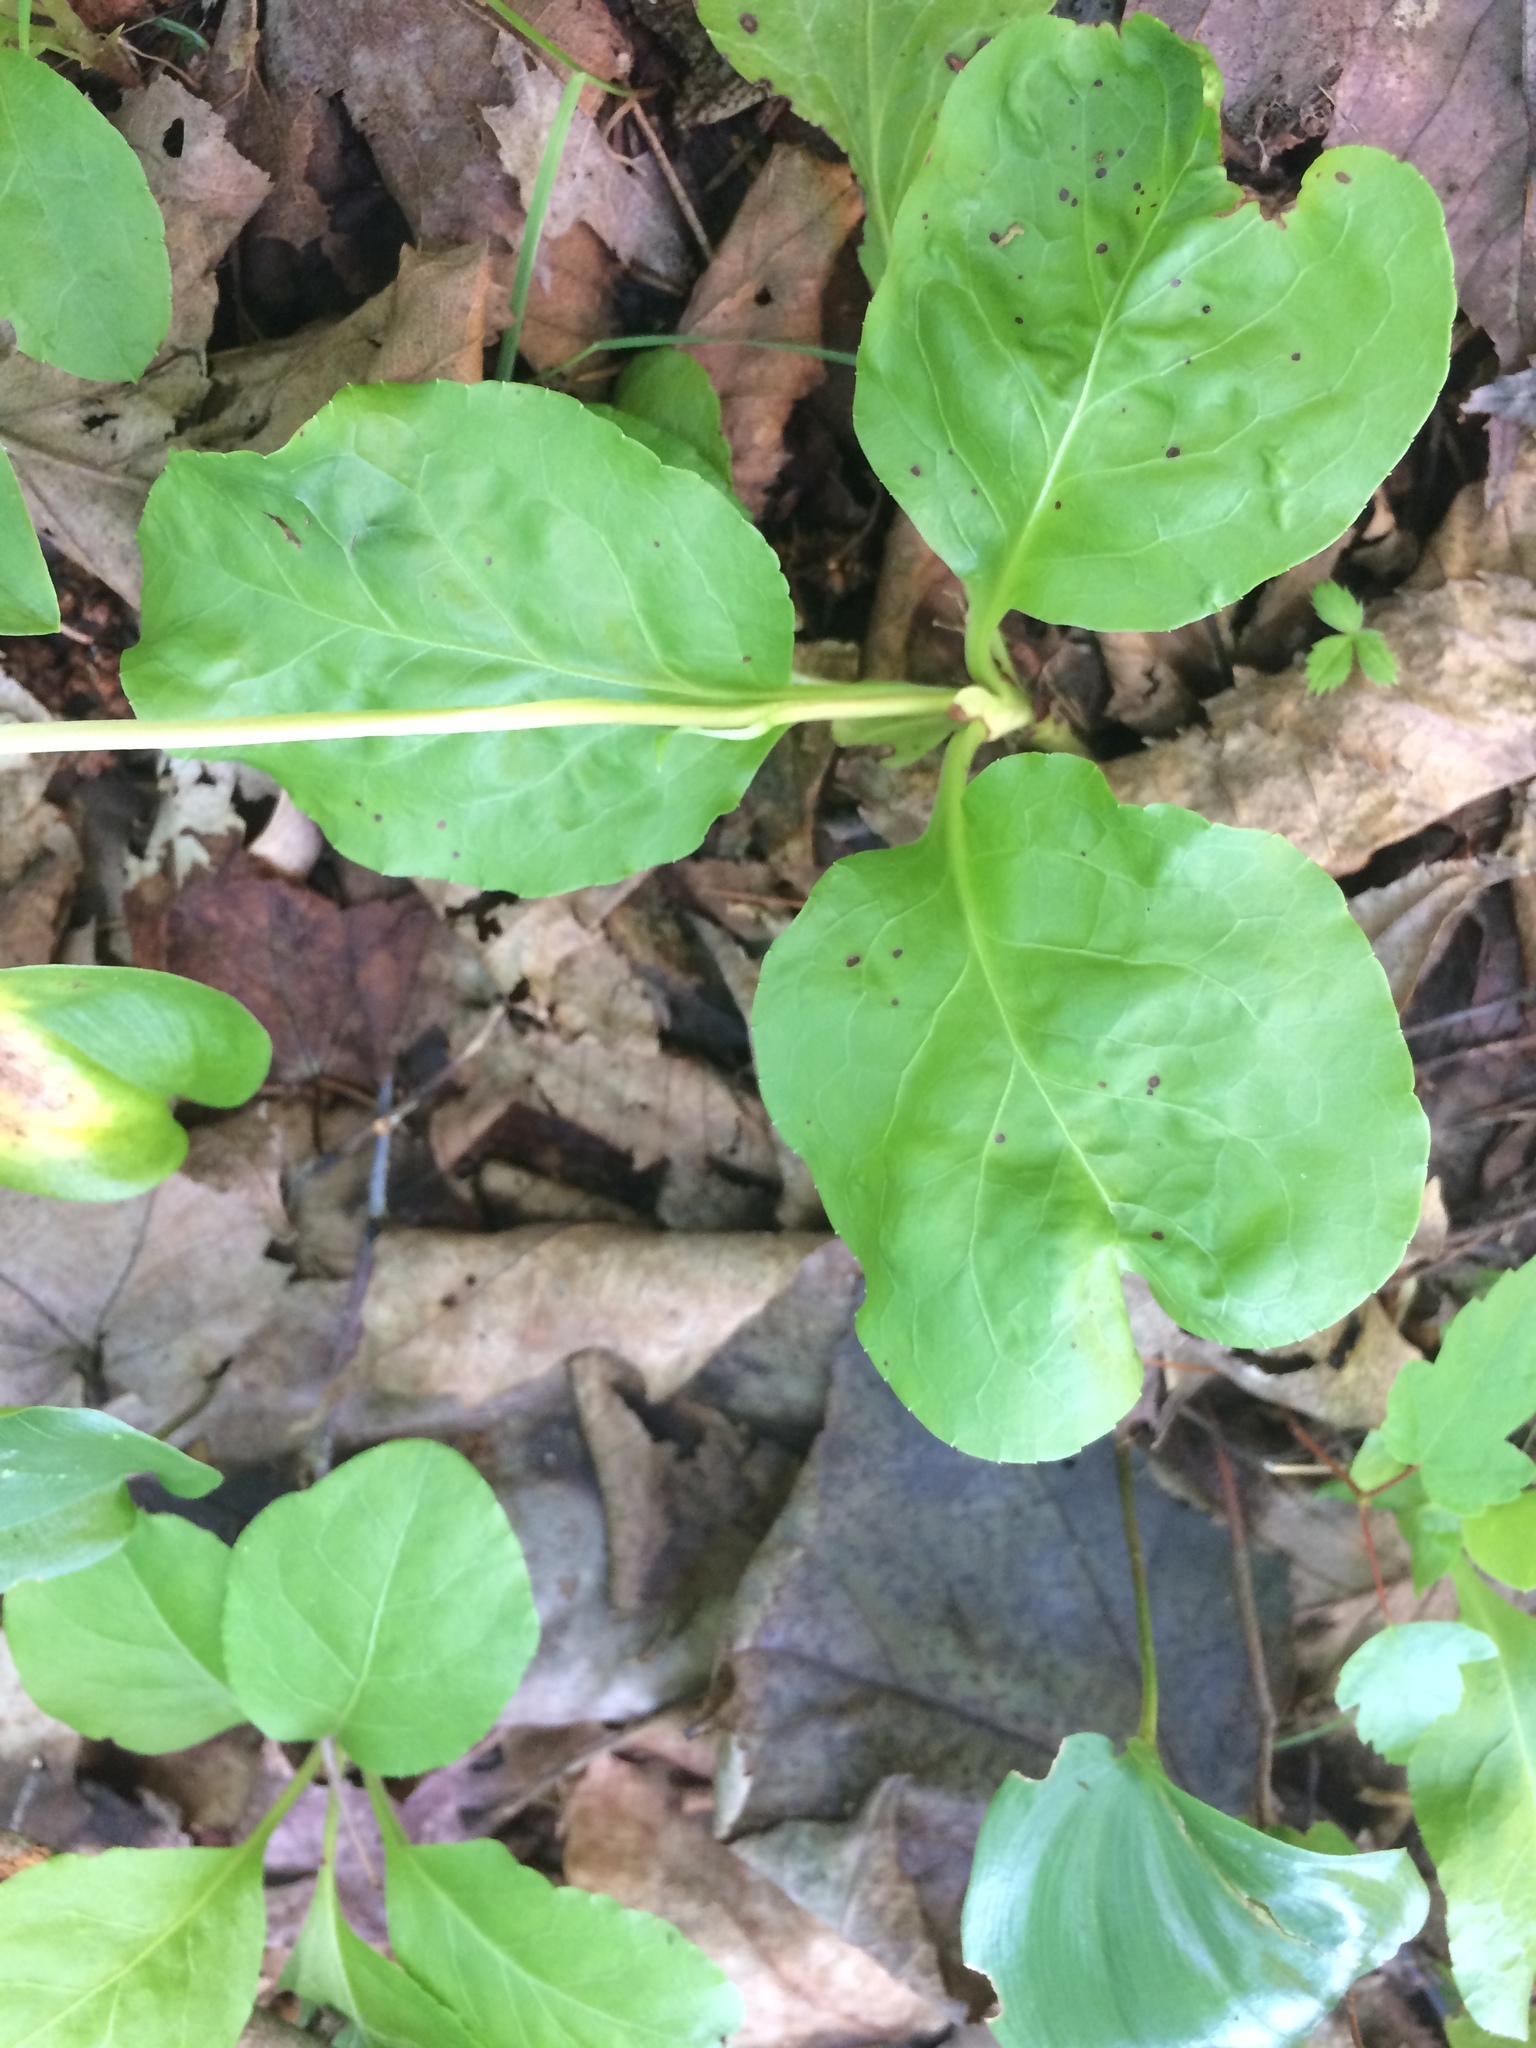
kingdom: Plantae
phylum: Tracheophyta
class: Magnoliopsida
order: Ericales
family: Ericaceae
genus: Pyrola
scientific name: Pyrola elliptica
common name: Shinleaf
